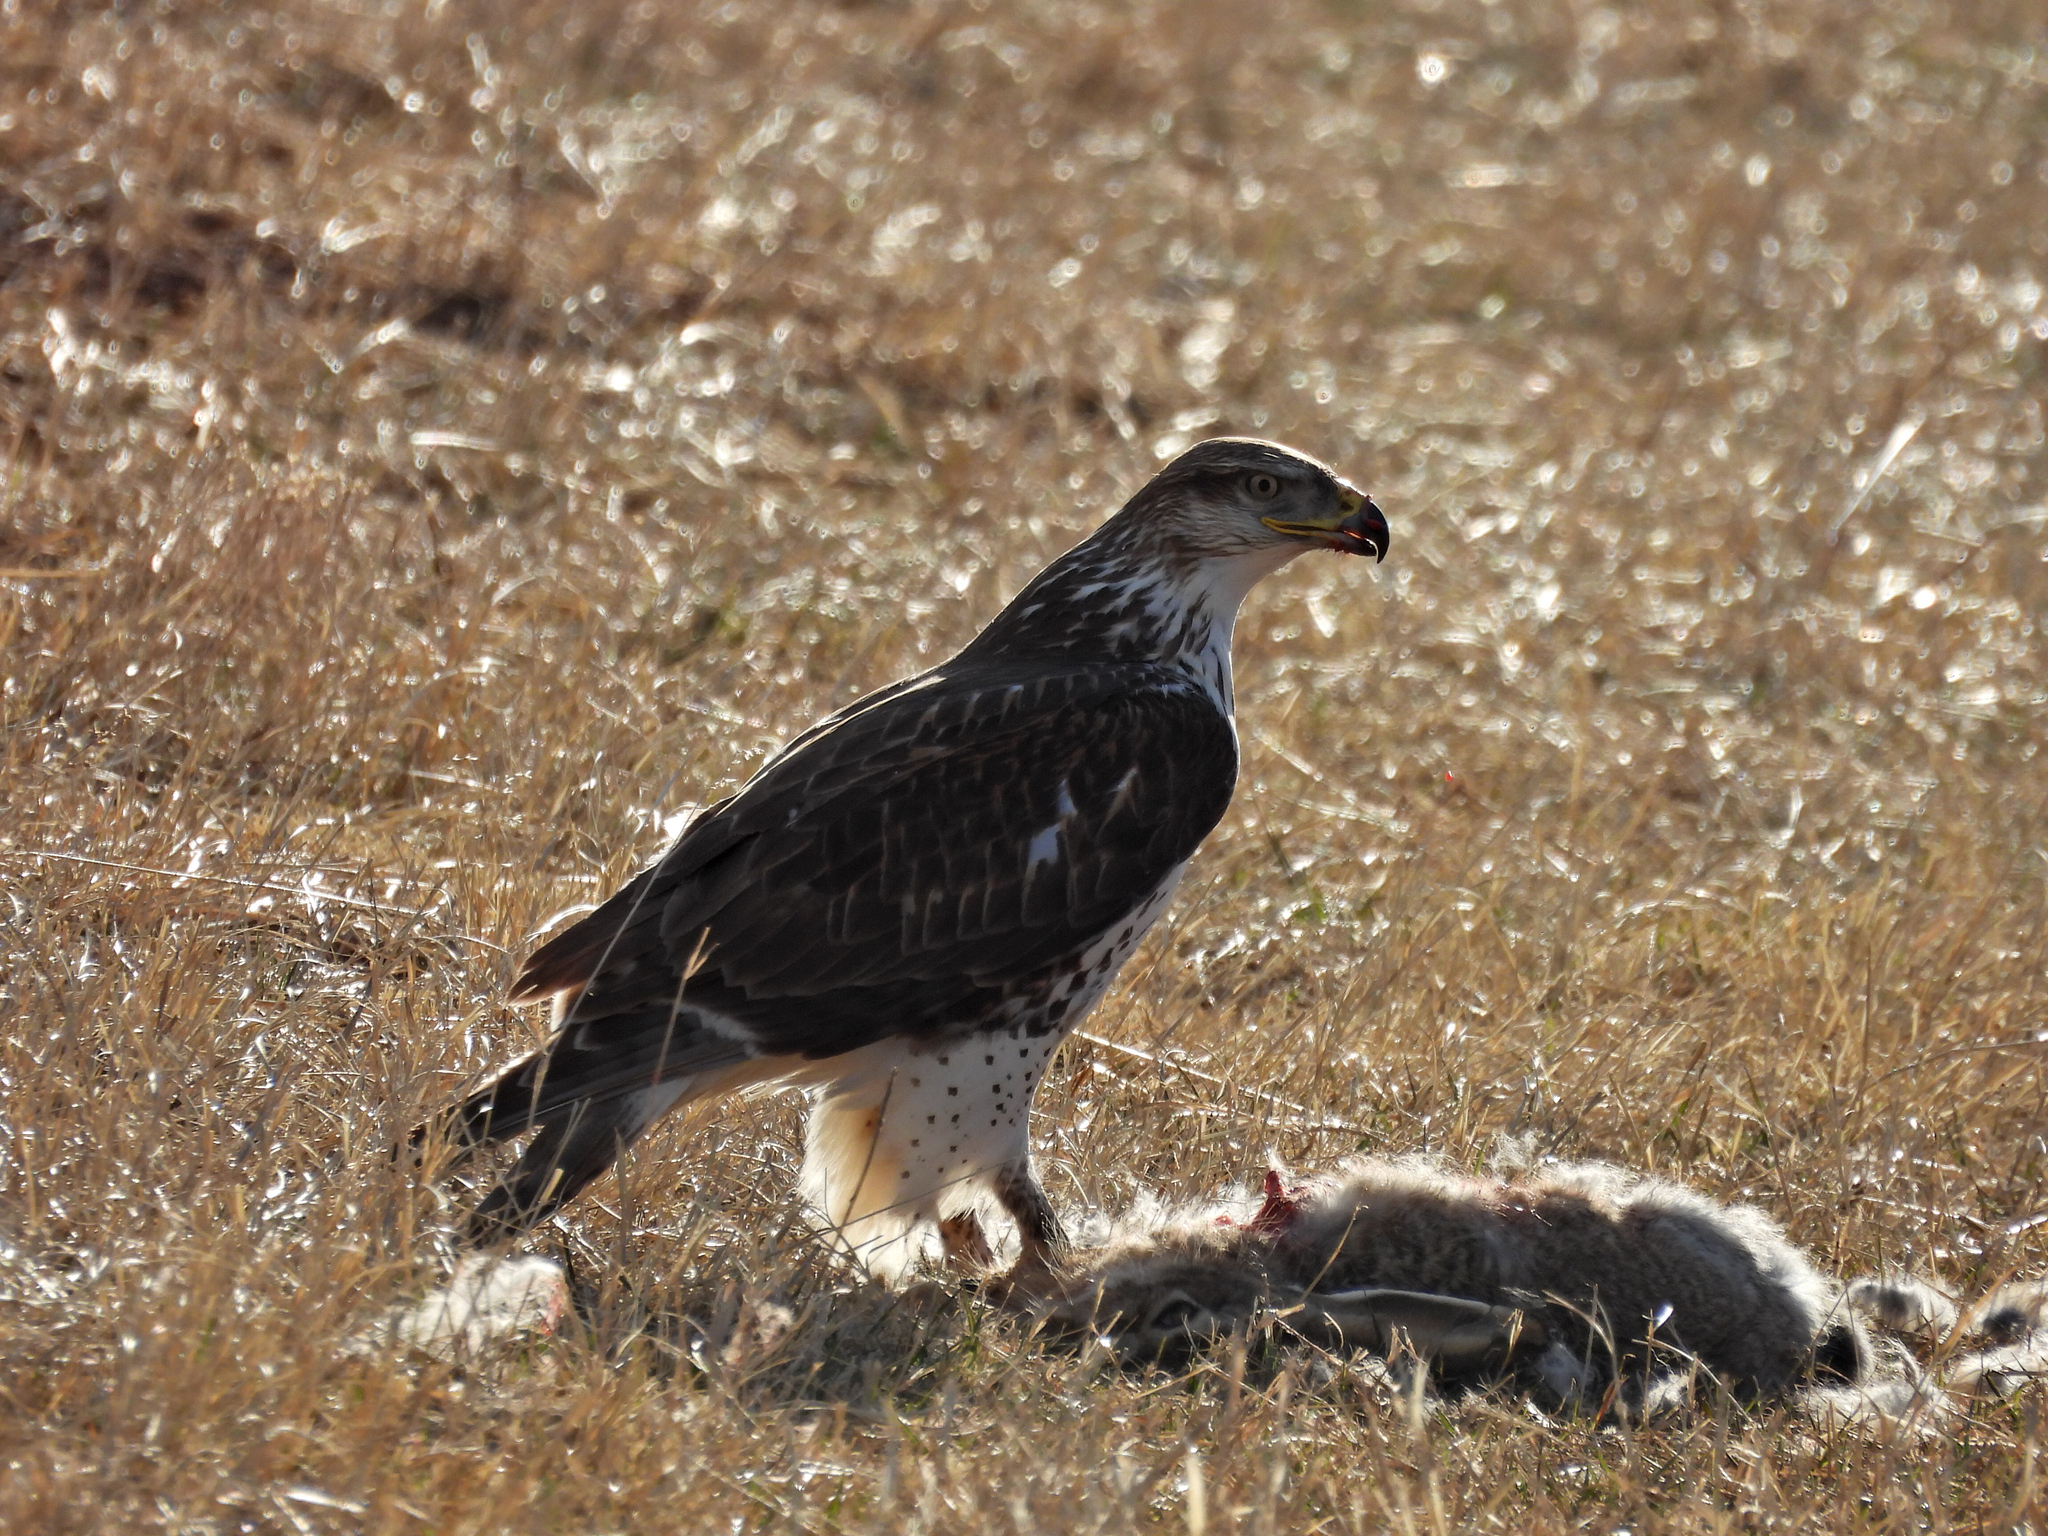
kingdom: Animalia
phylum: Chordata
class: Aves
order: Accipitriformes
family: Accipitridae
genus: Buteo
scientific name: Buteo regalis
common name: Ferruginous hawk
